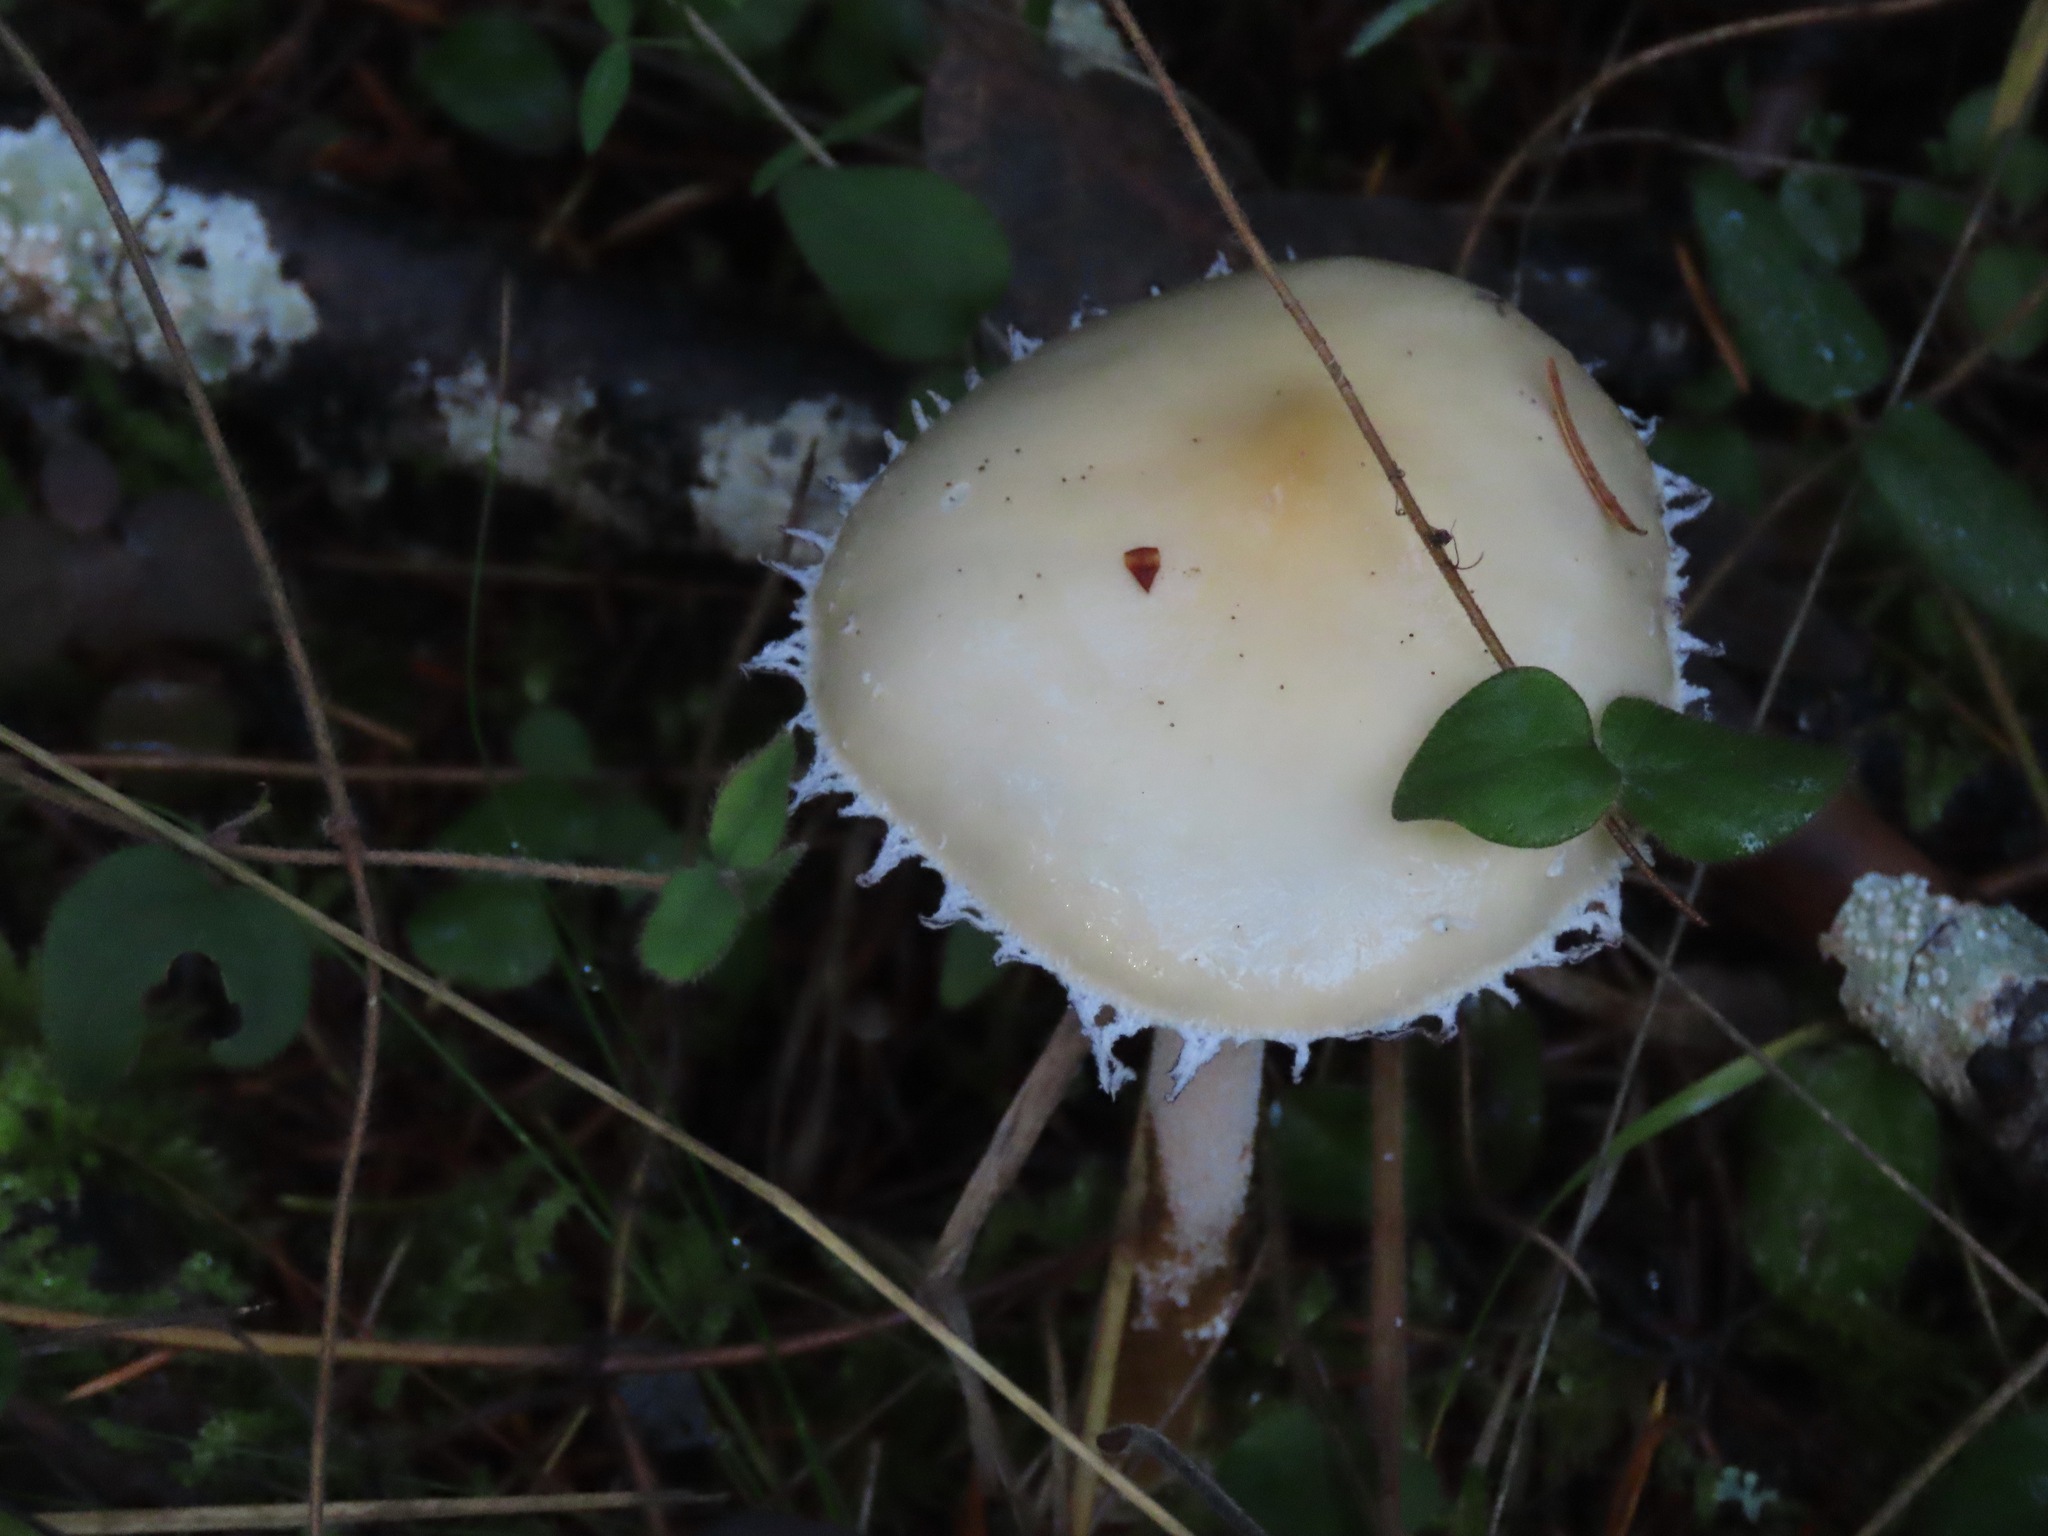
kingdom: Fungi
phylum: Basidiomycota
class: Agaricomycetes
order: Agaricales
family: Strophariaceae
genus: Stropharia
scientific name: Stropharia ambigua
